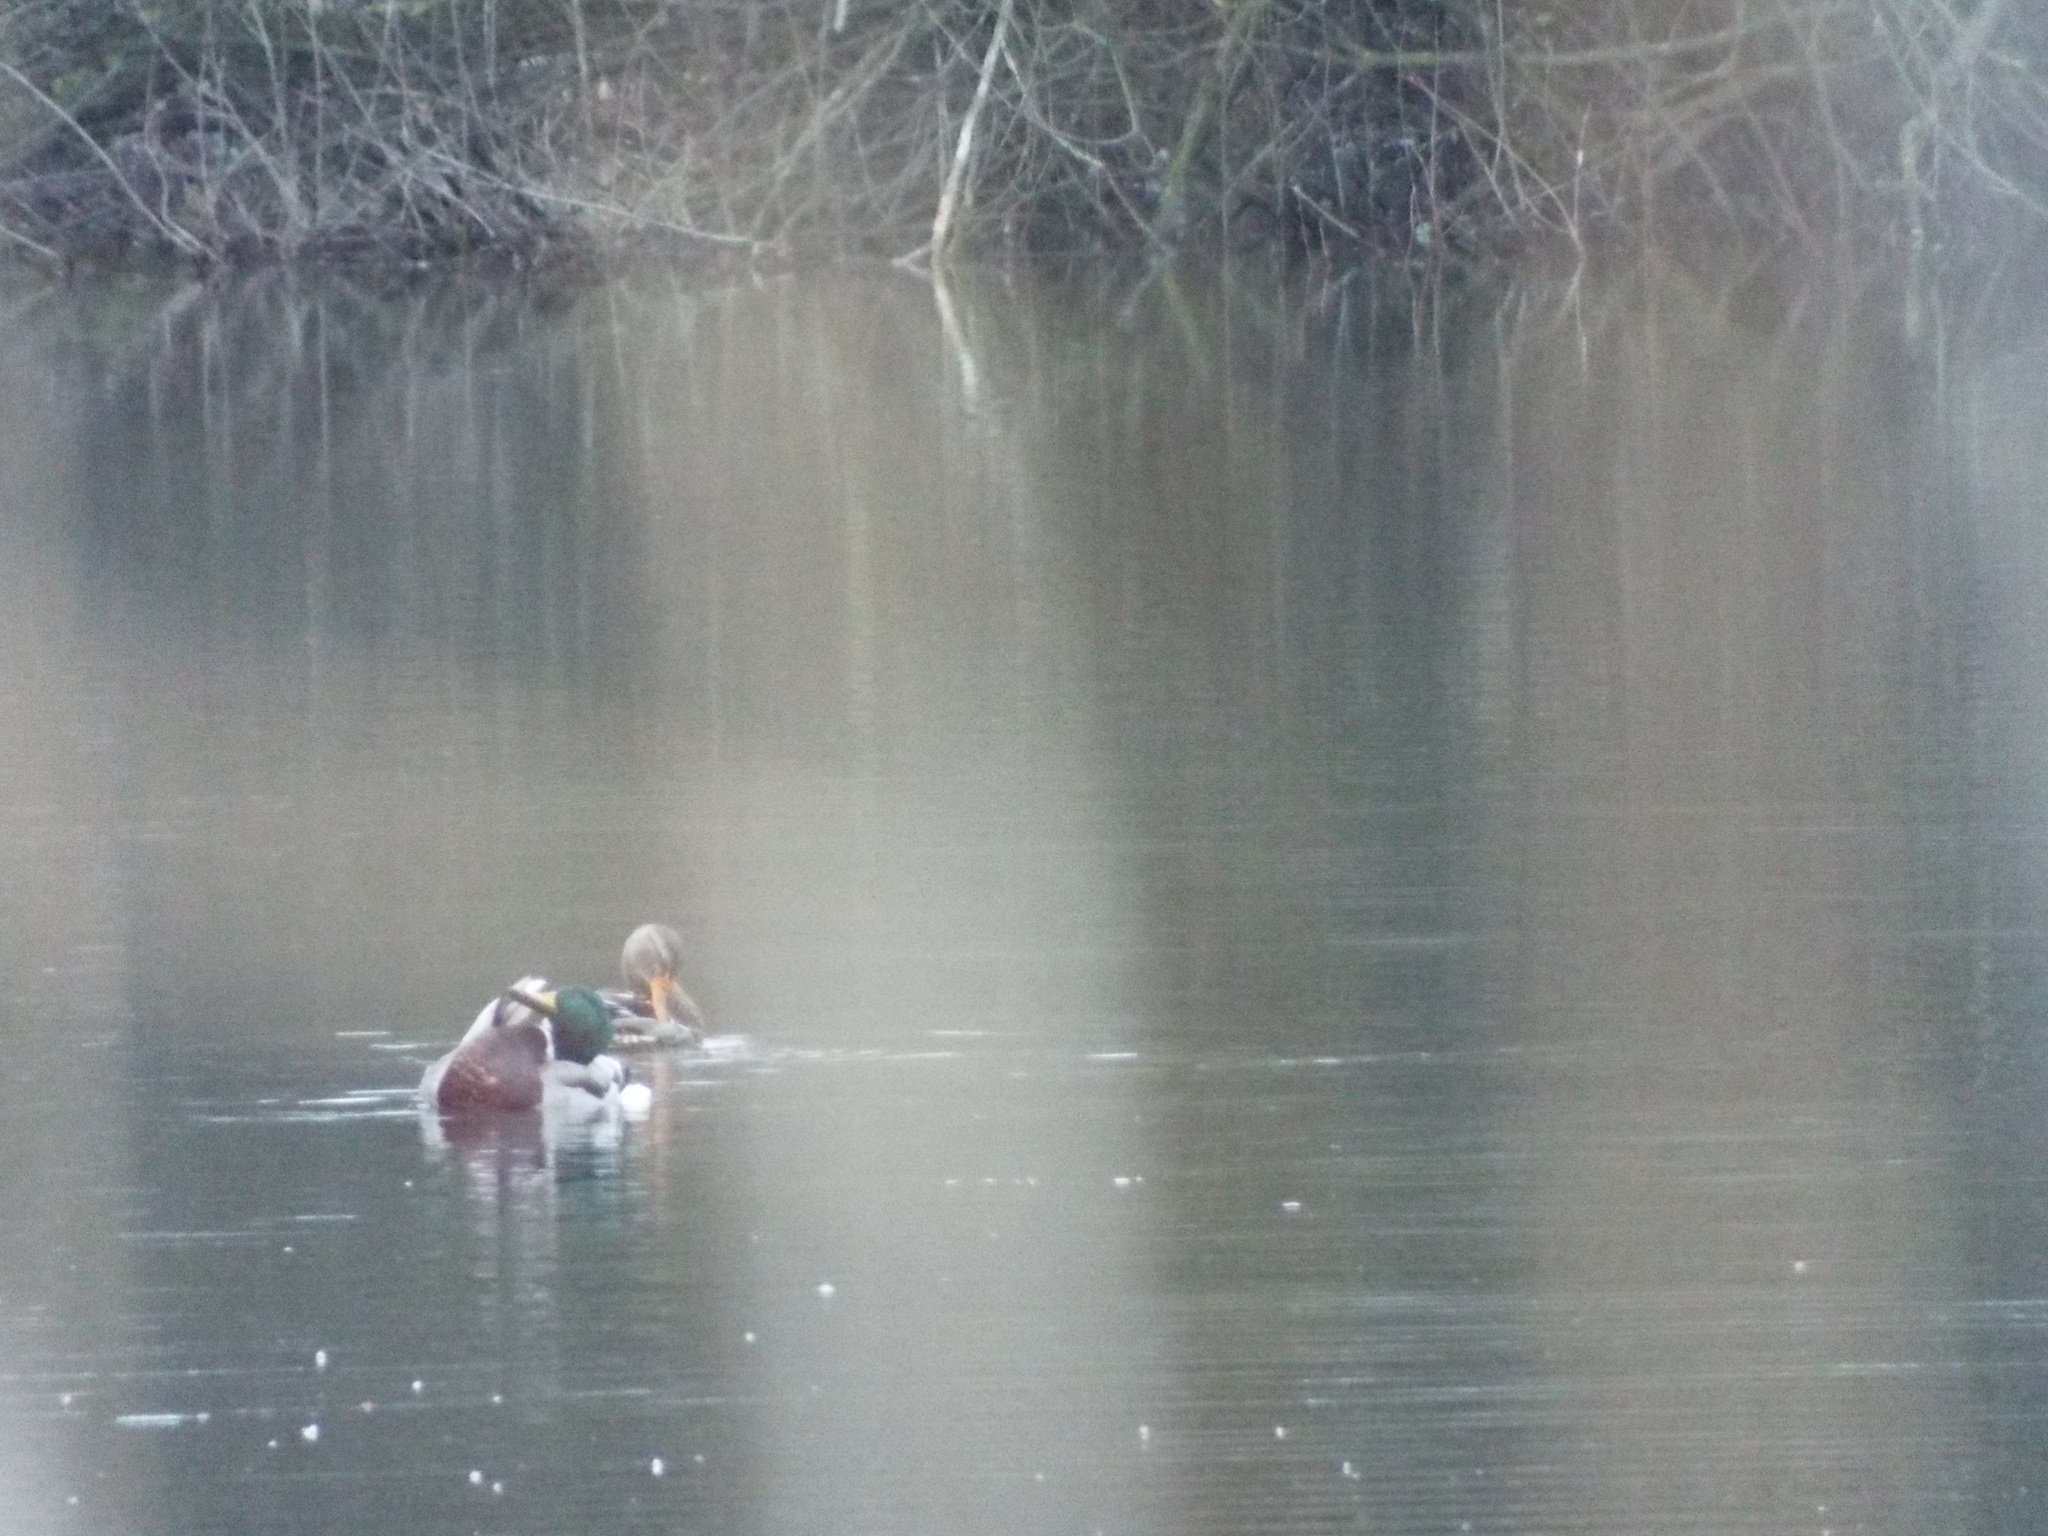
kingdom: Animalia
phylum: Chordata
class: Aves
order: Anseriformes
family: Anatidae
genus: Anas
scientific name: Anas platyrhynchos
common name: Mallard
